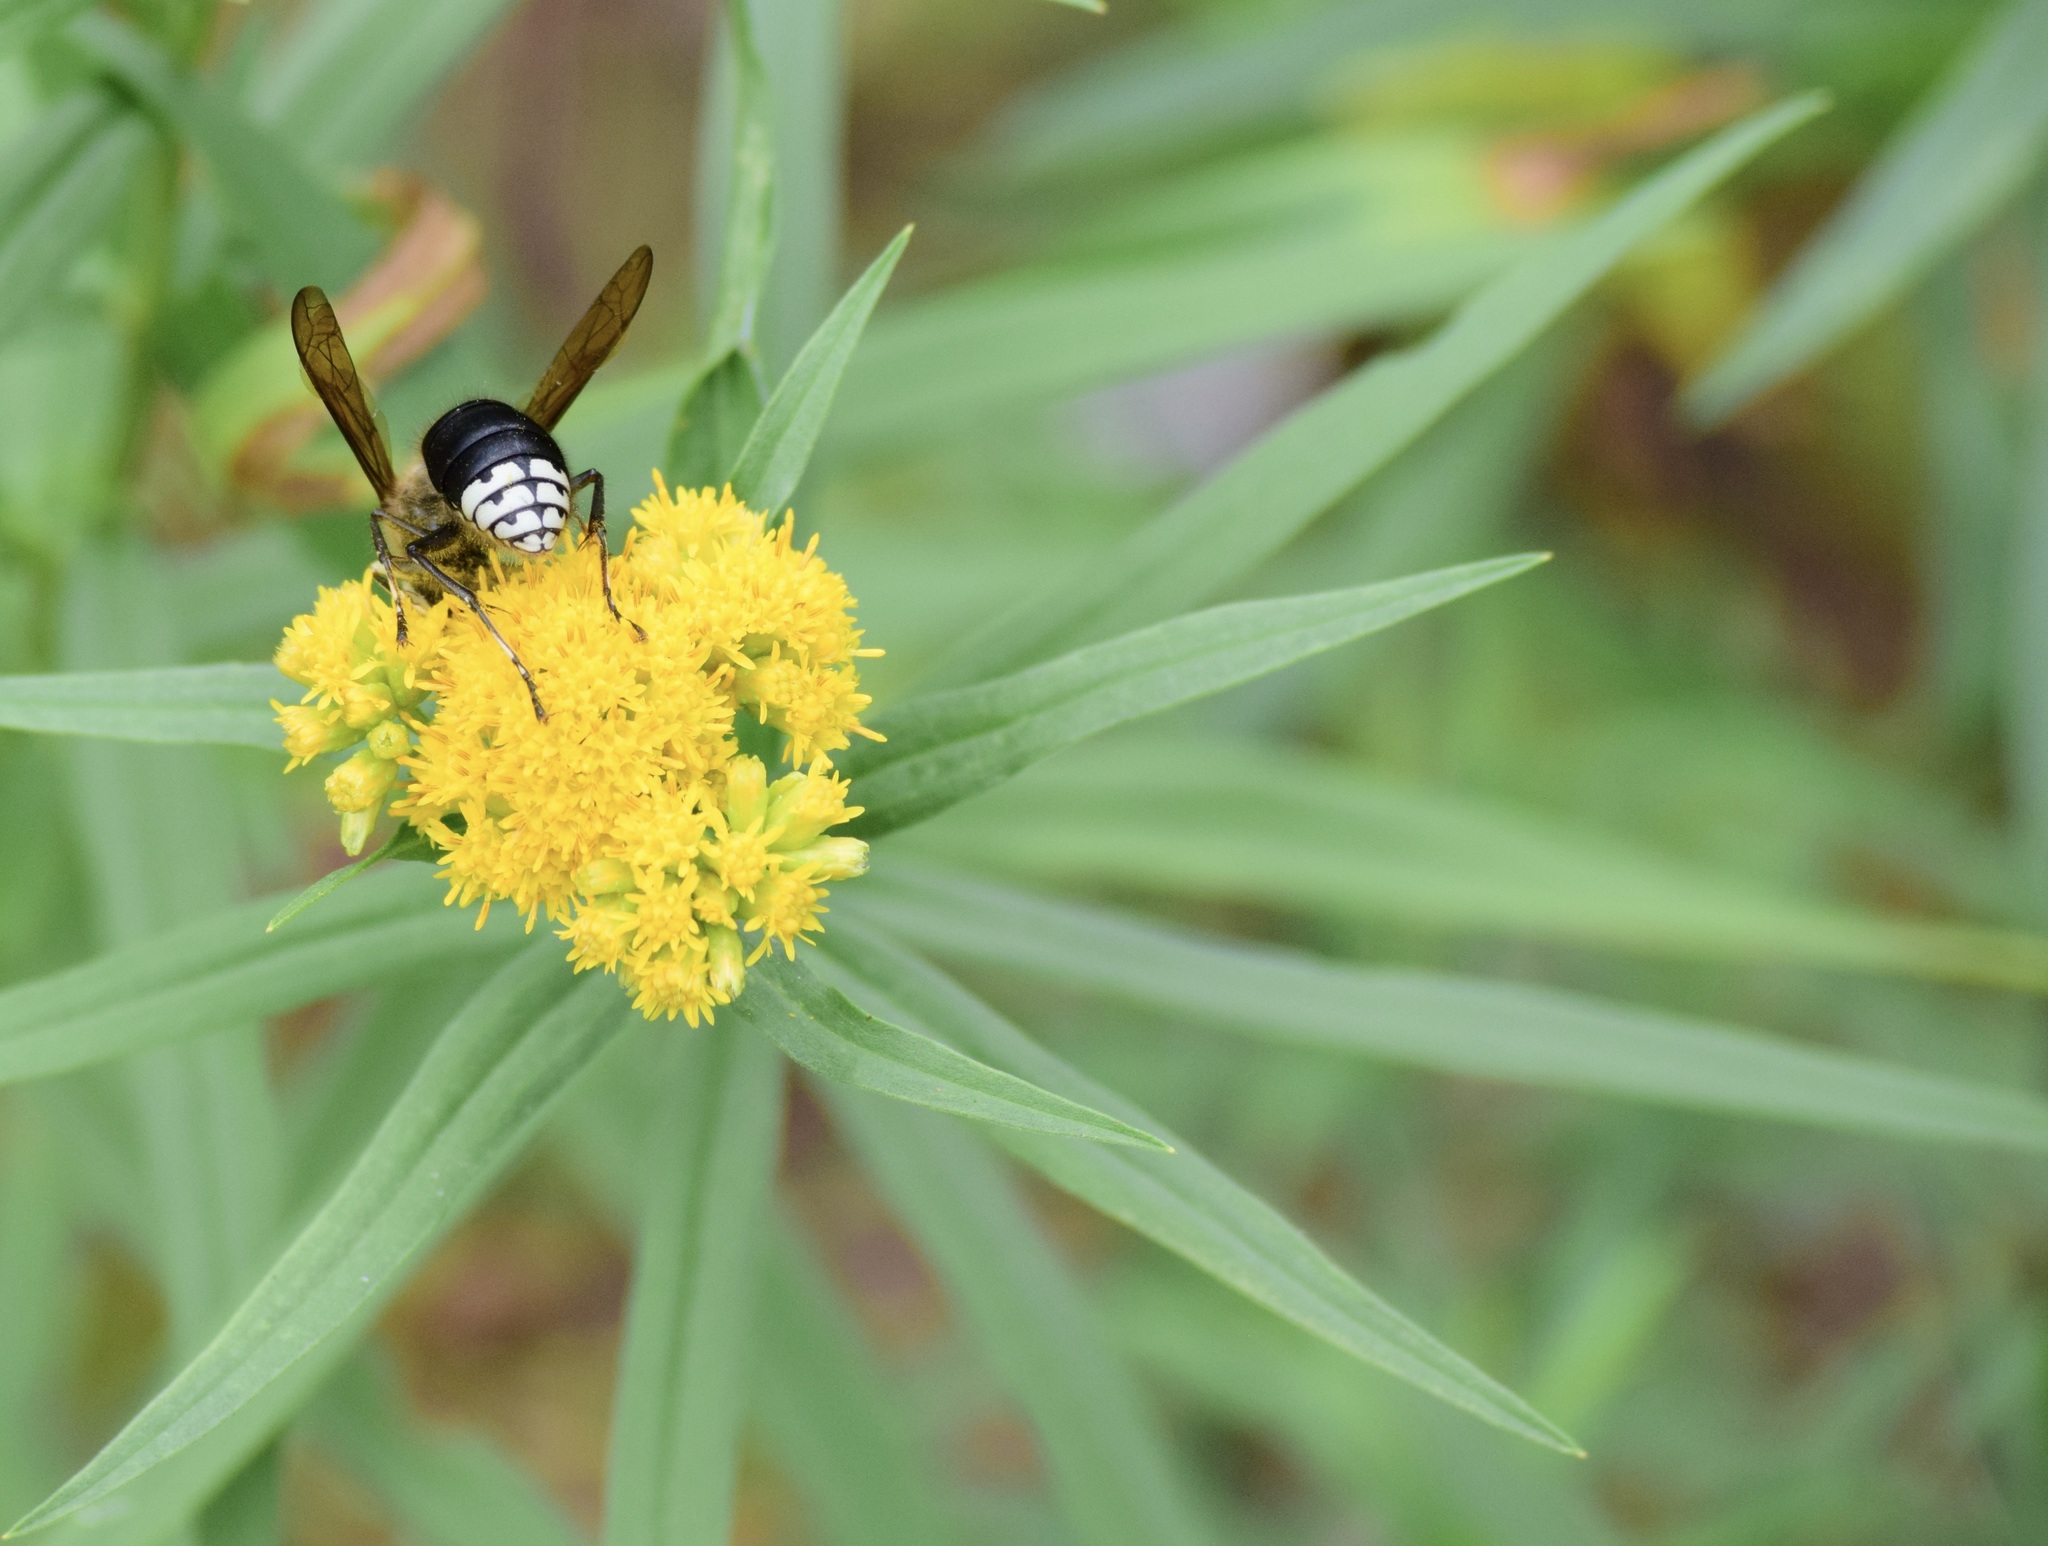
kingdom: Animalia
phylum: Arthropoda
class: Insecta
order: Hymenoptera
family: Vespidae
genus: Dolichovespula
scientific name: Dolichovespula maculata
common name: Bald-faced hornet
